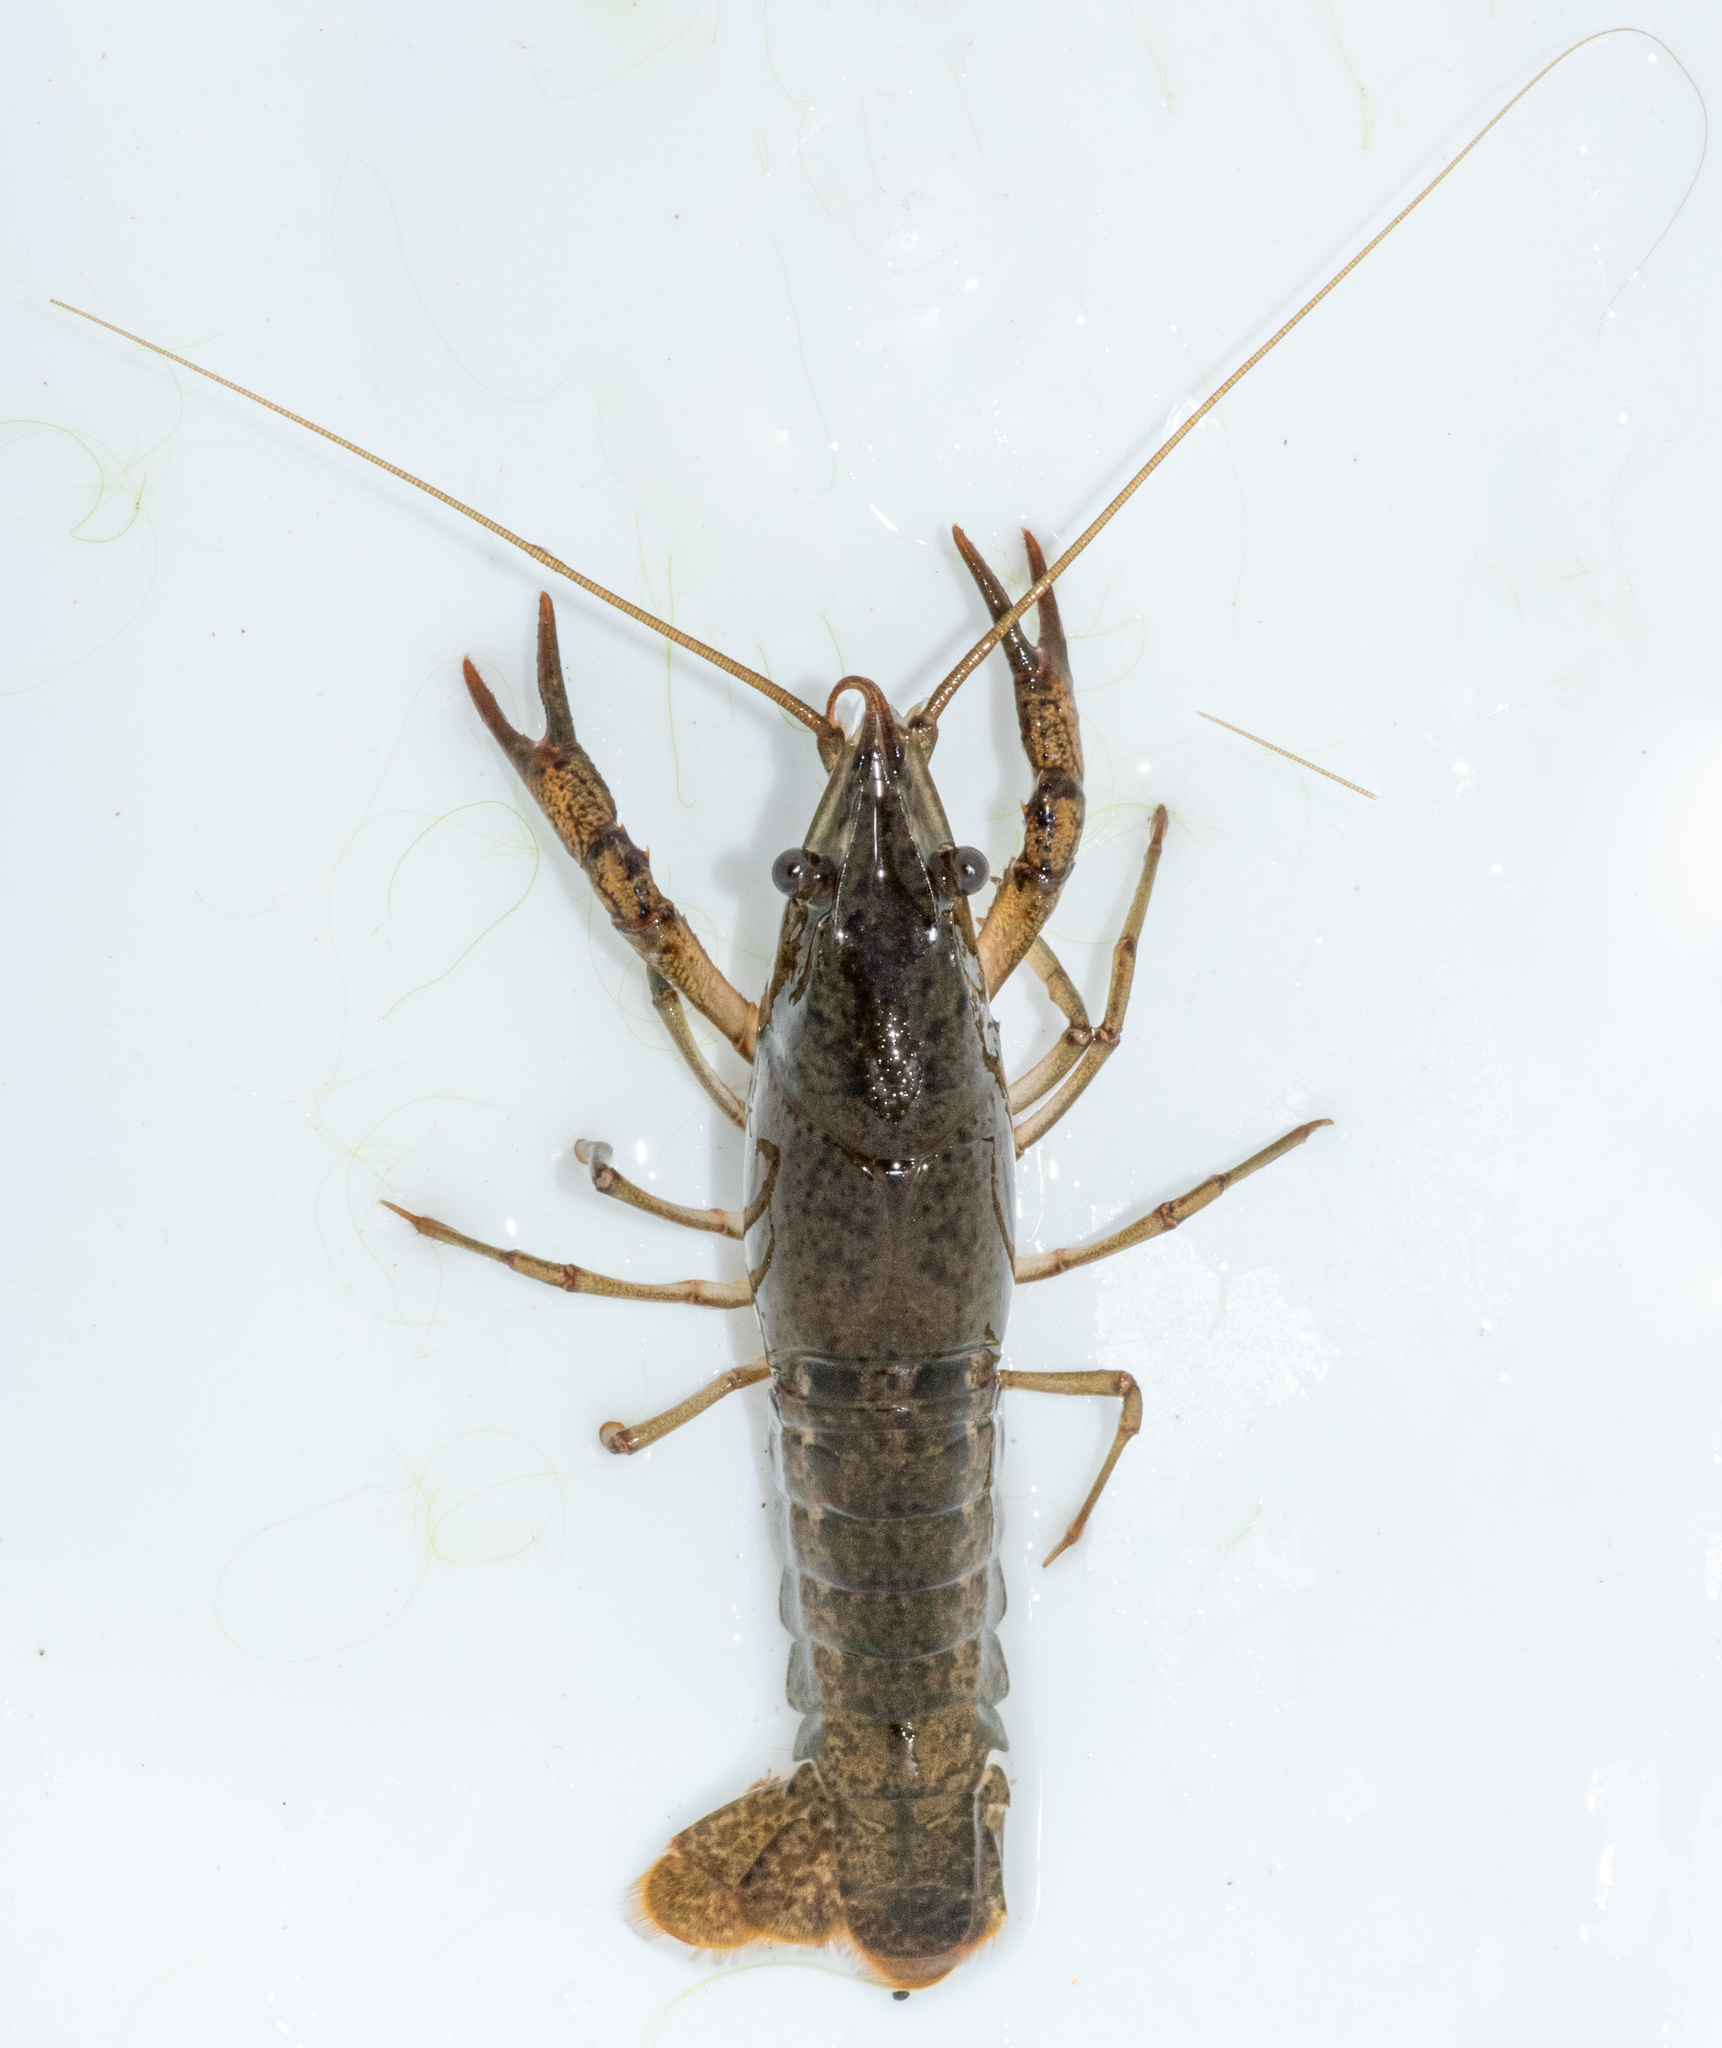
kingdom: Animalia
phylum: Arthropoda
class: Malacostraca
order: Decapoda
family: Cambaridae
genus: Procambarus
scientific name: Procambarus clarkii
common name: Red swamp crayfish
